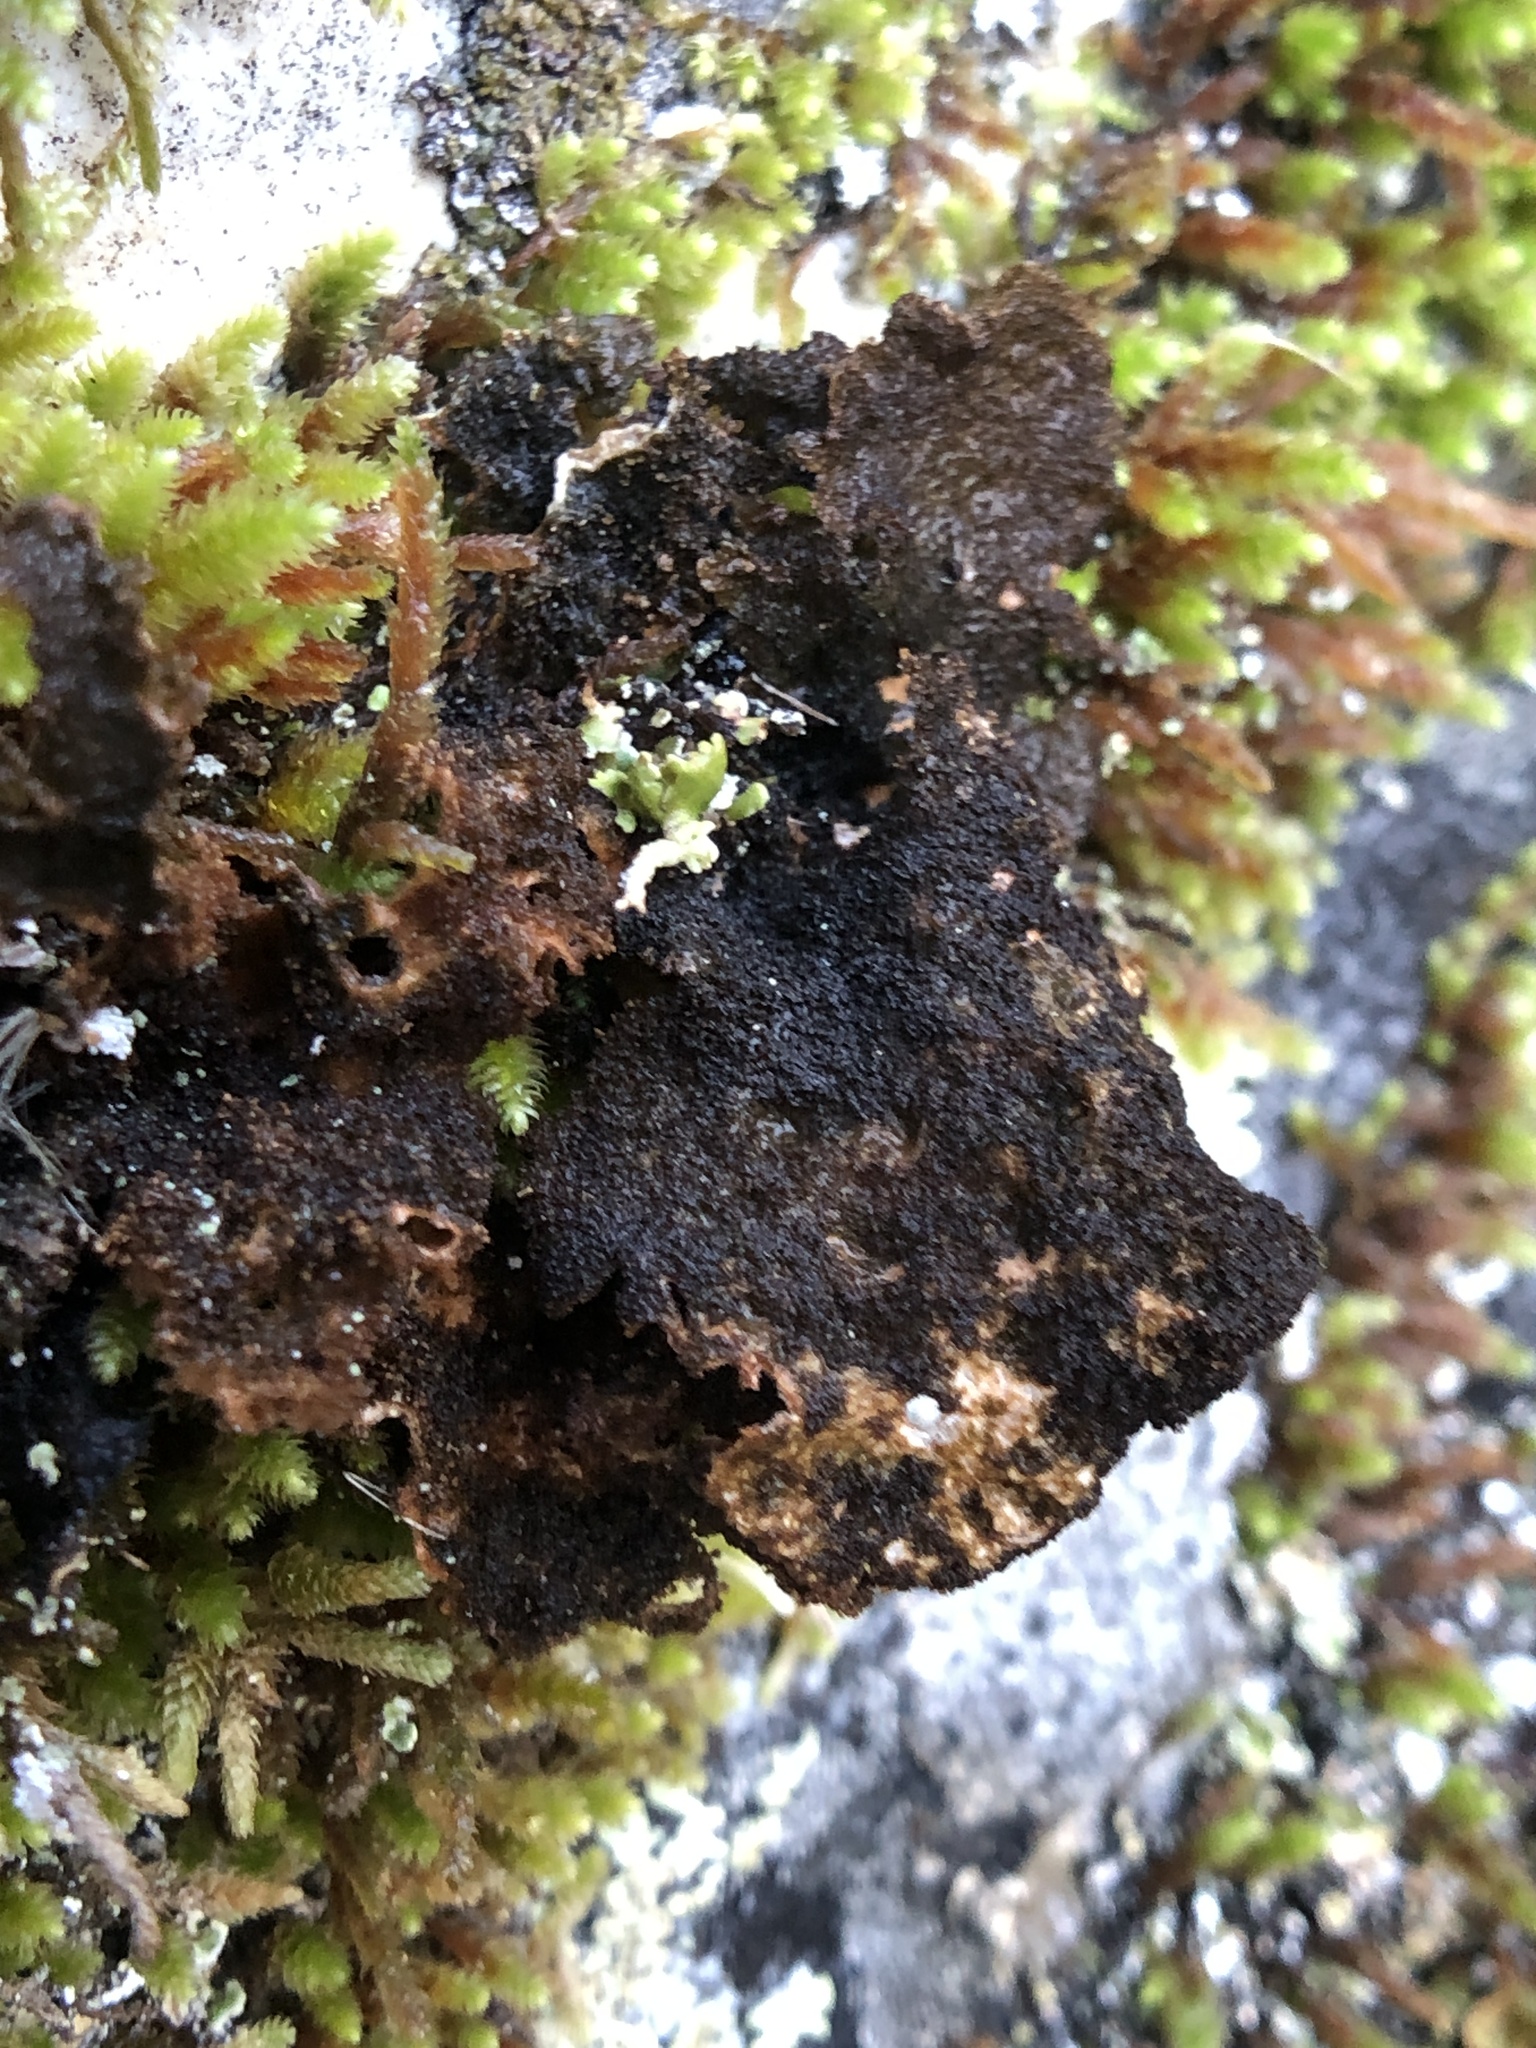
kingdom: Fungi
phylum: Ascomycota
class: Lecanoromycetes
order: Peltigerales
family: Lobariaceae
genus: Sticta
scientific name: Sticta
